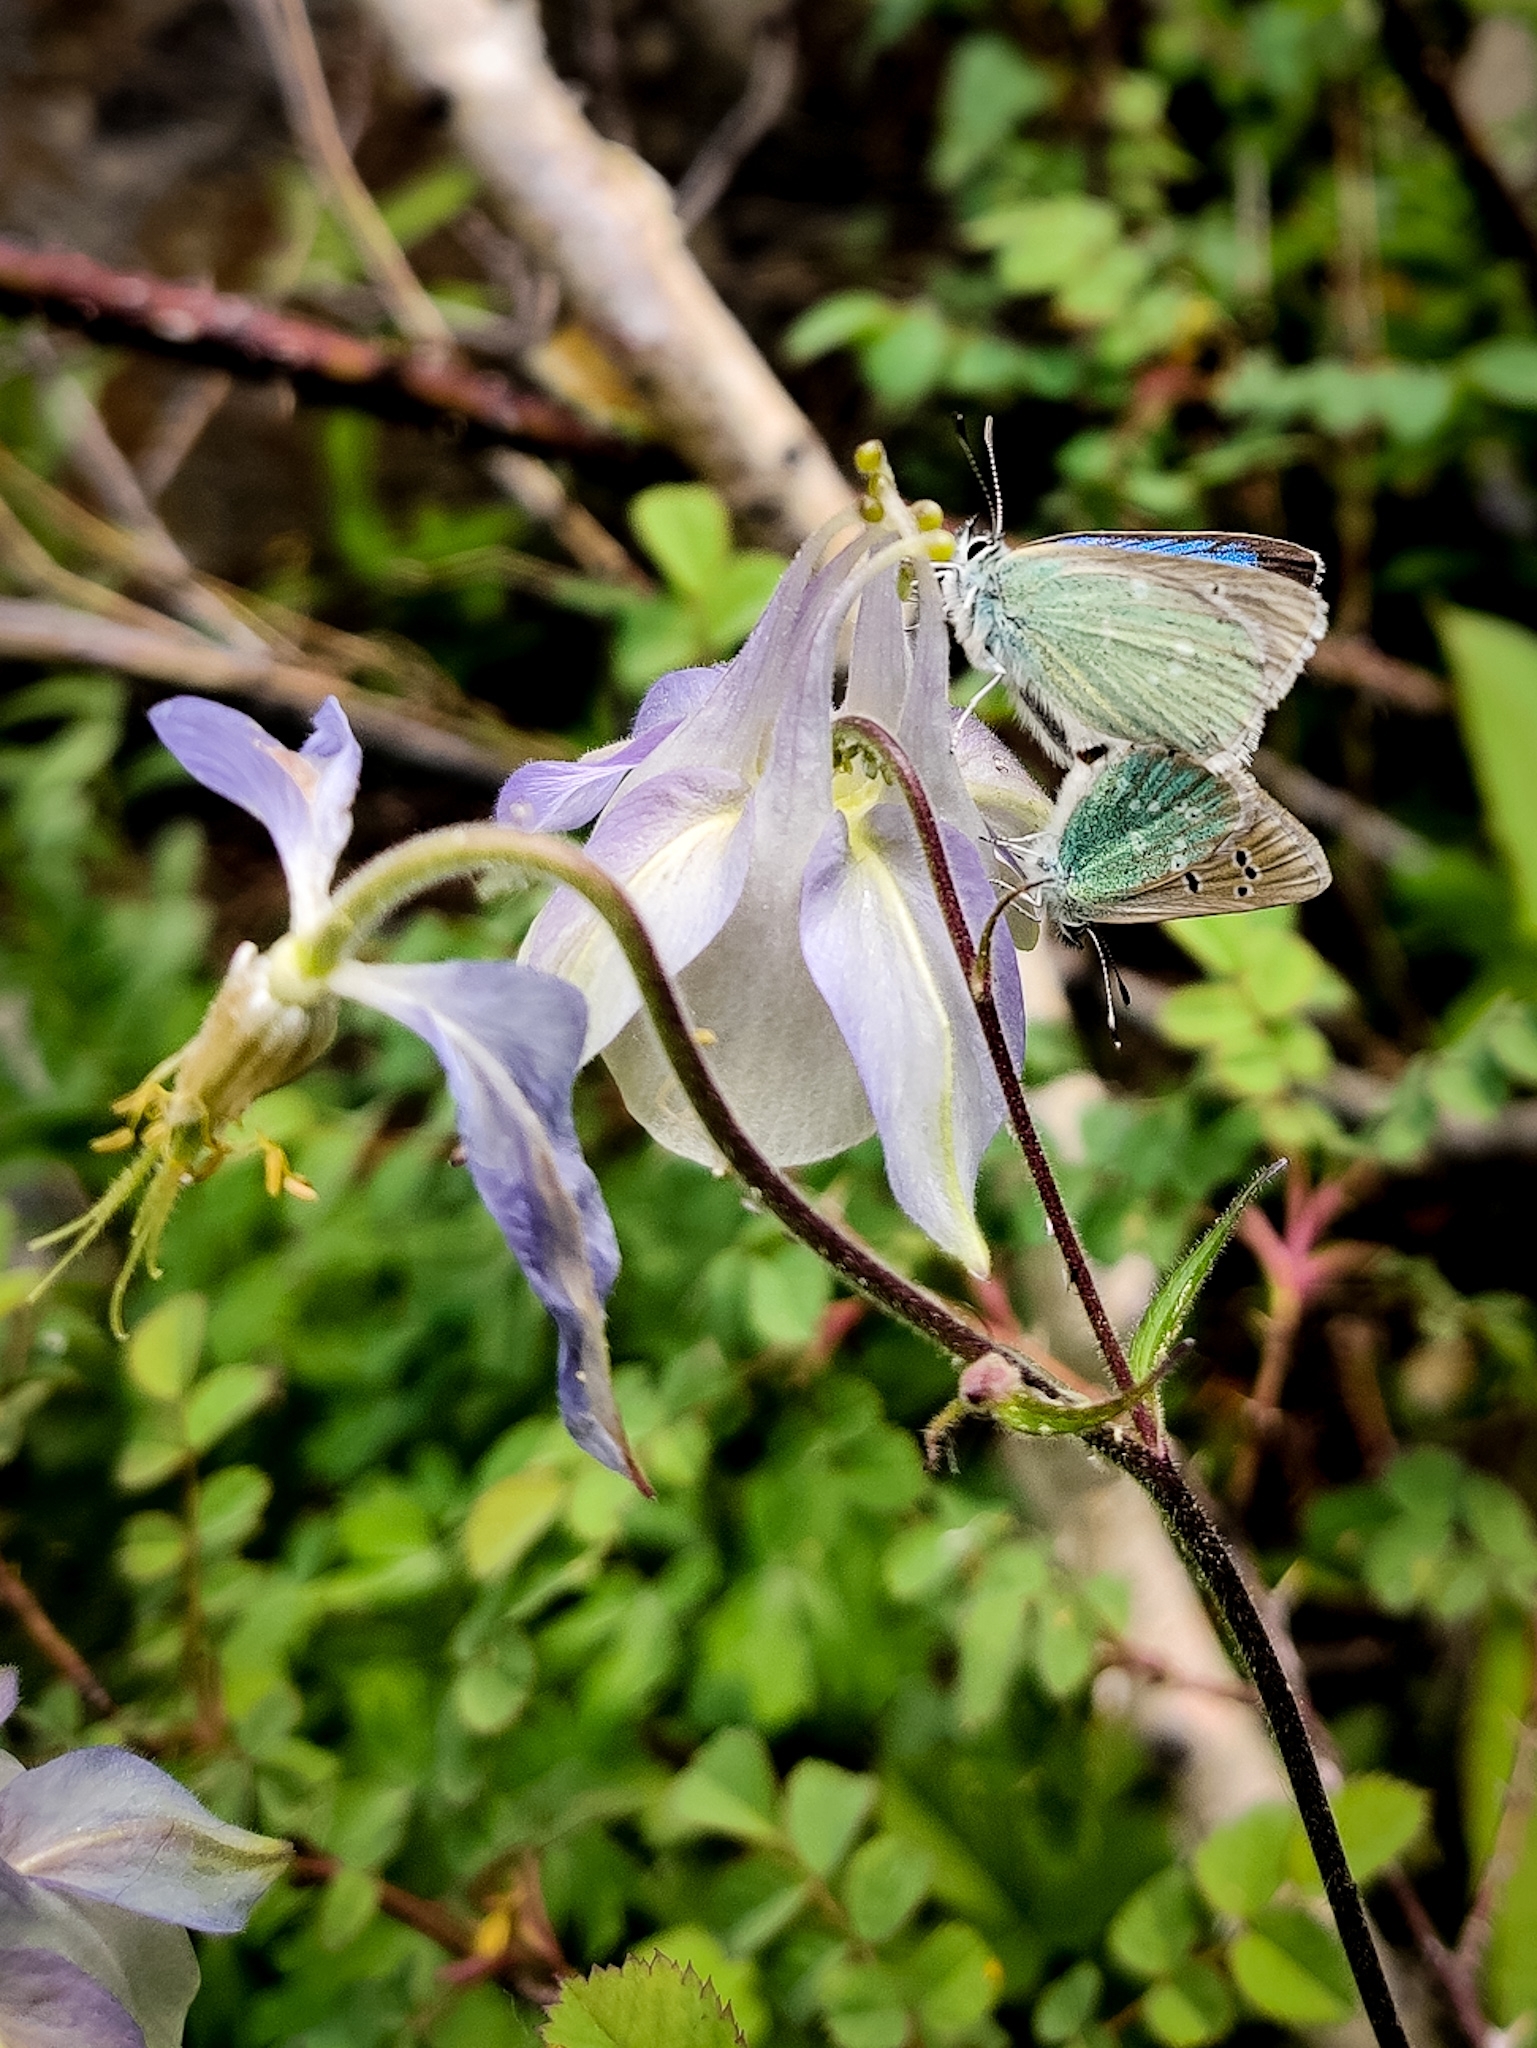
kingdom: Animalia
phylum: Arthropoda
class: Insecta
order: Lepidoptera
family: Lycaenidae
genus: Pamiria
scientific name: Pamiria
